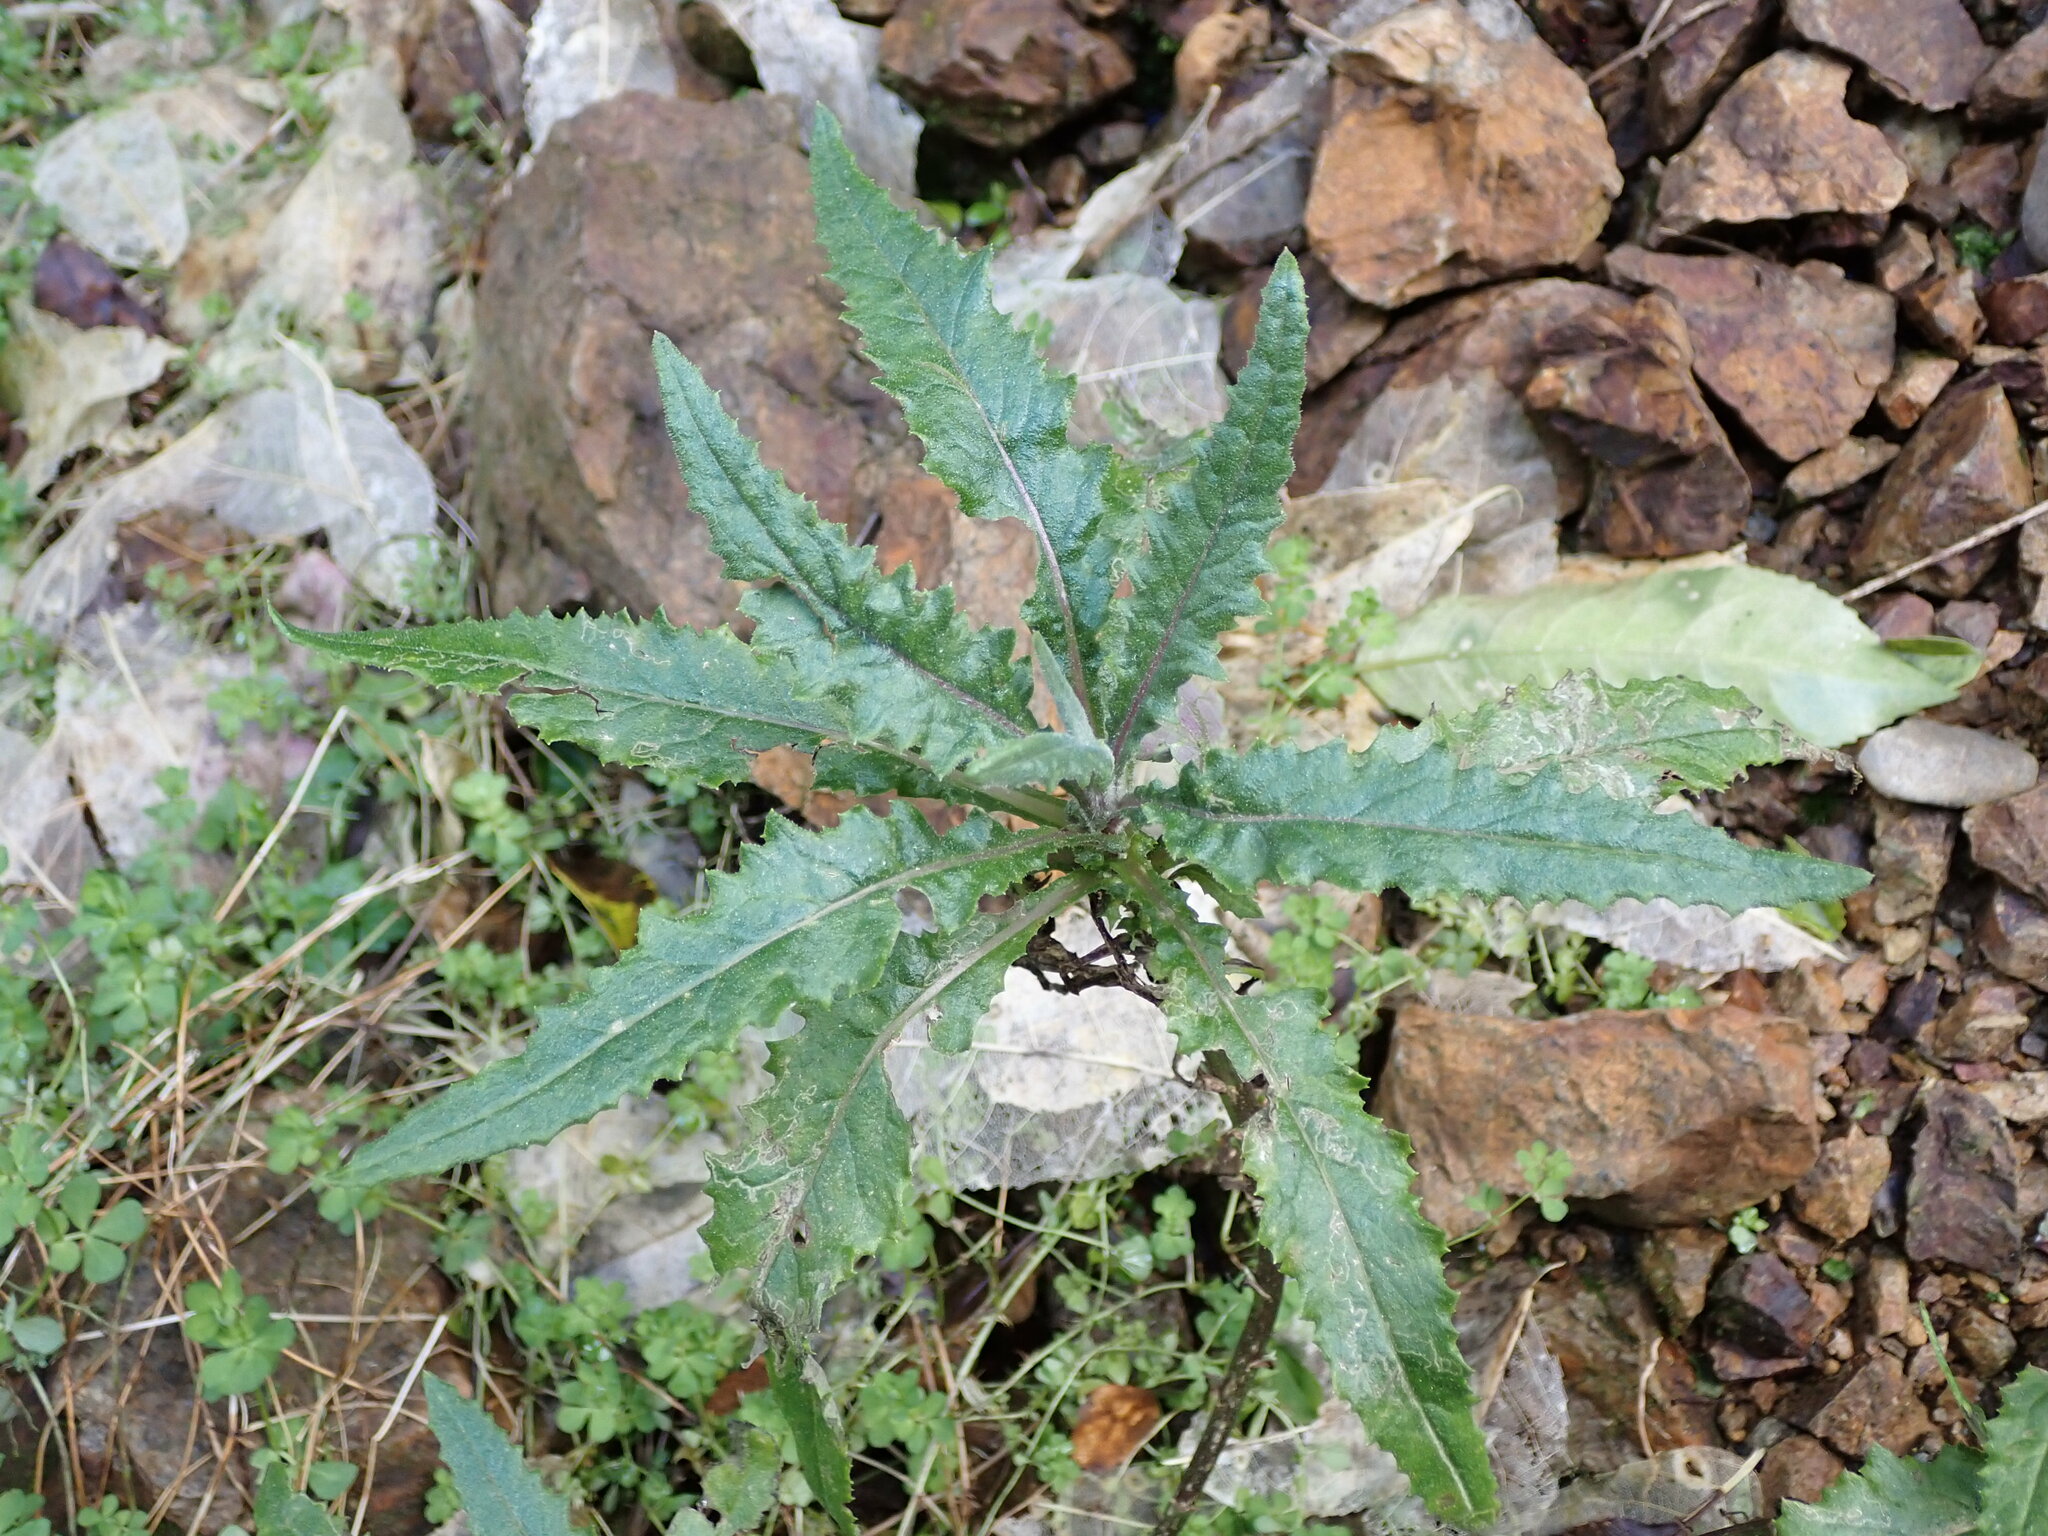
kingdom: Plantae
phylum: Tracheophyta
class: Magnoliopsida
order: Asterales
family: Asteraceae
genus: Senecio
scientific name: Senecio minimus
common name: Toothed fireweed
